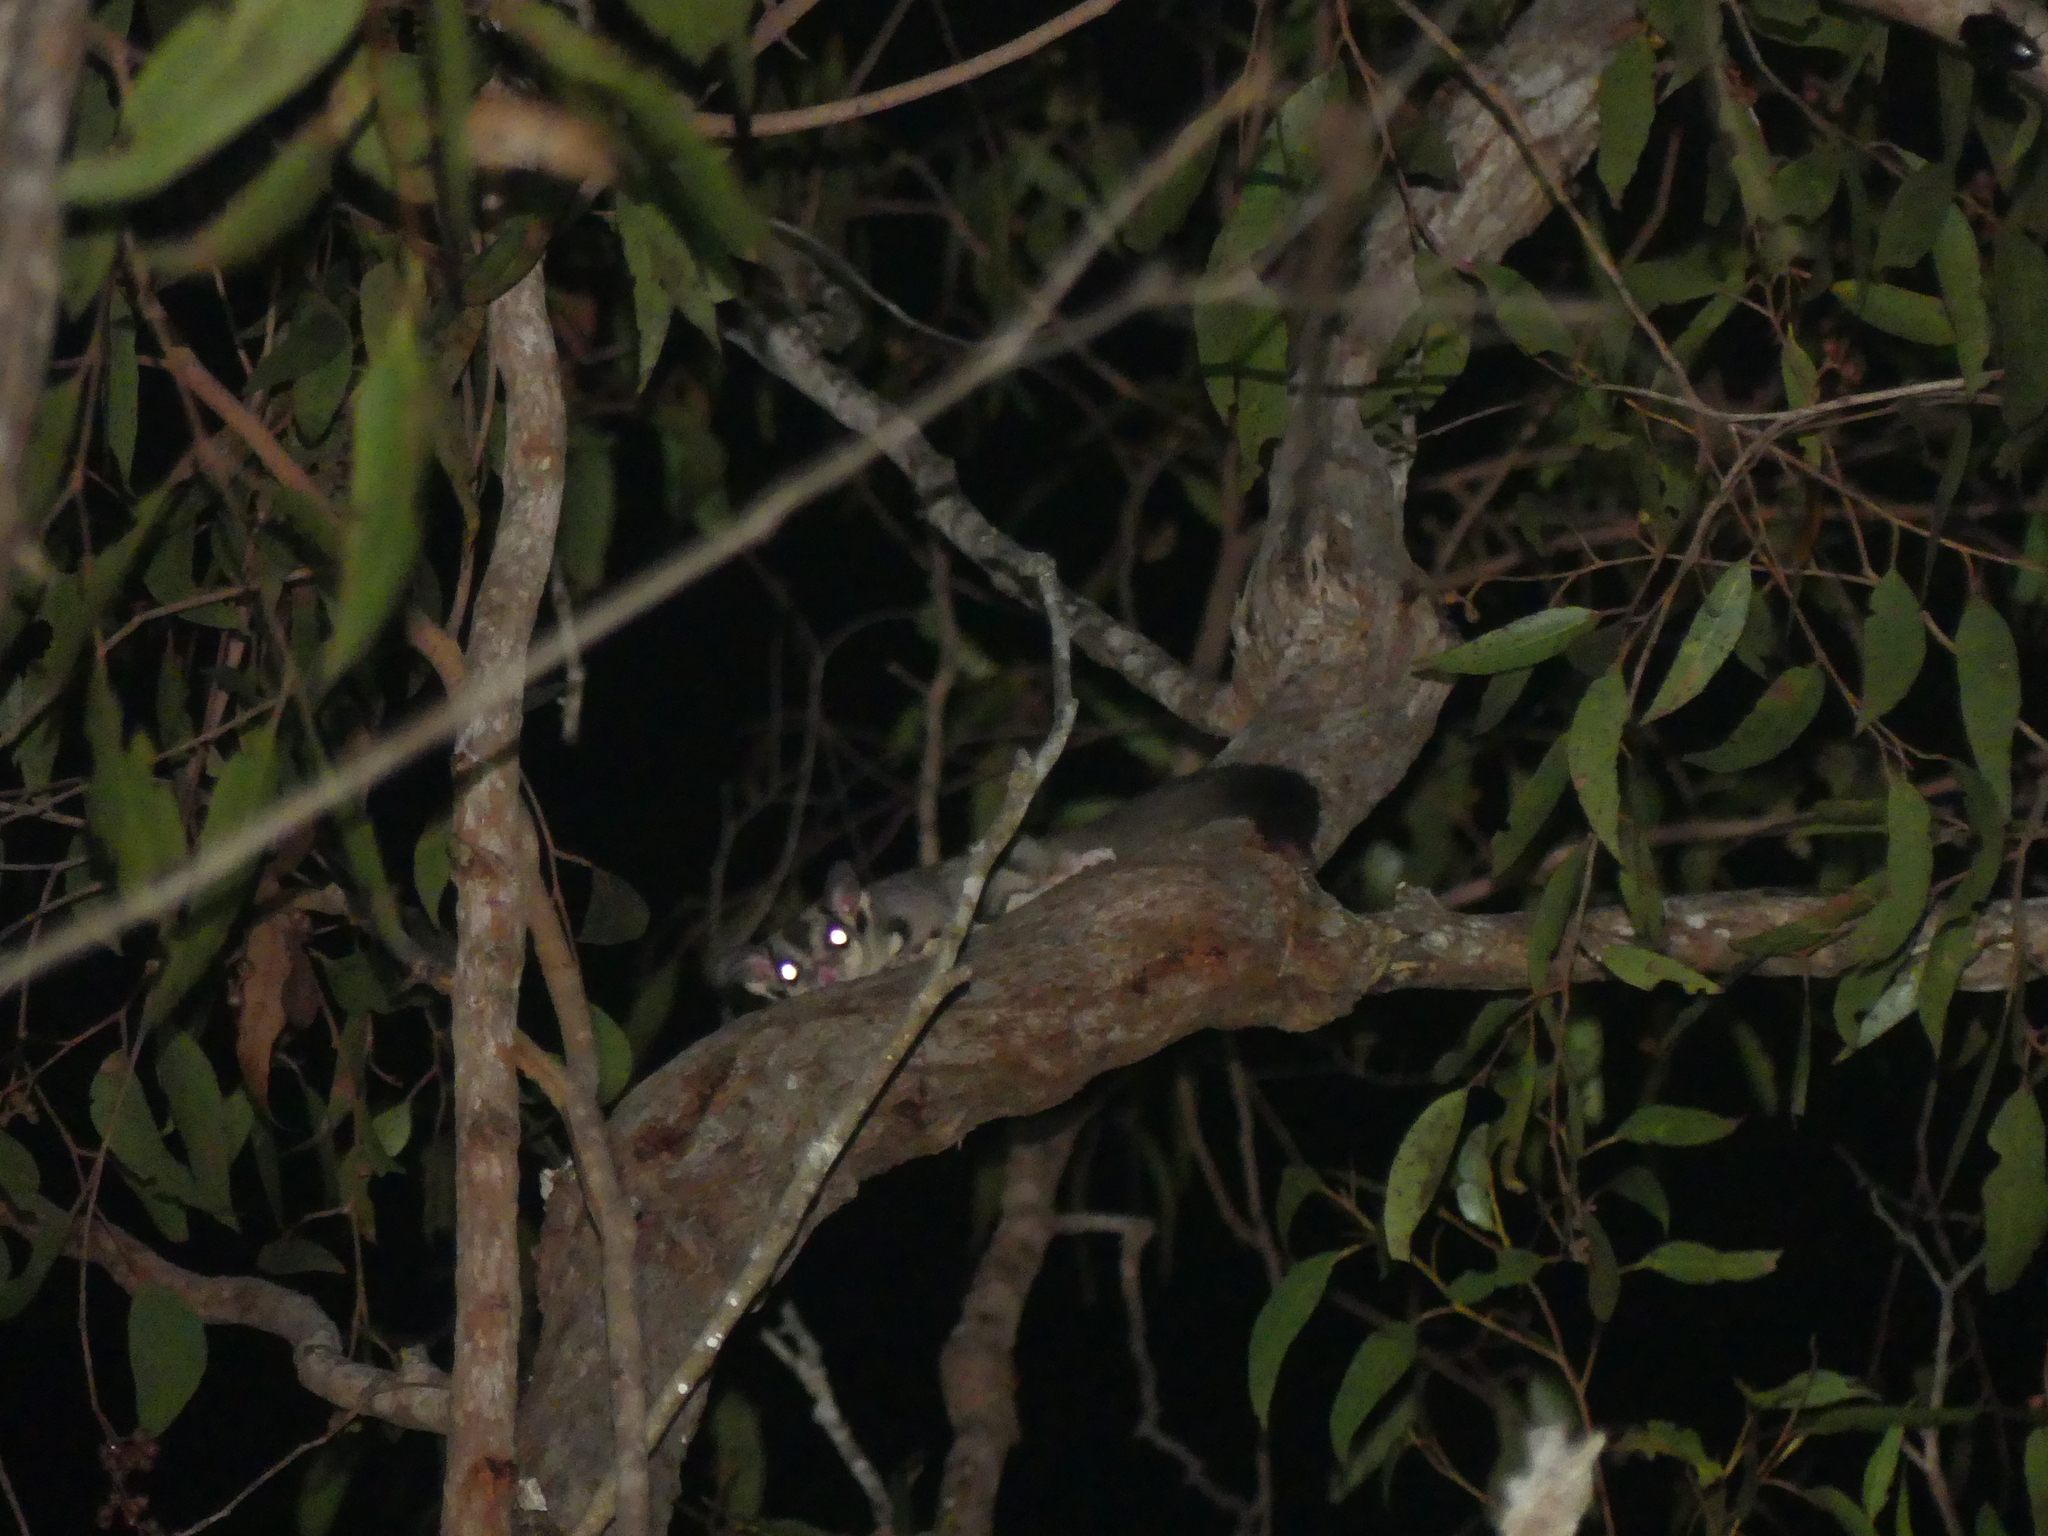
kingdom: Animalia
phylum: Chordata
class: Mammalia
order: Diprotodontia
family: Petauridae
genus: Petaurus
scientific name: Petaurus breviceps
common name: Sugar glider
